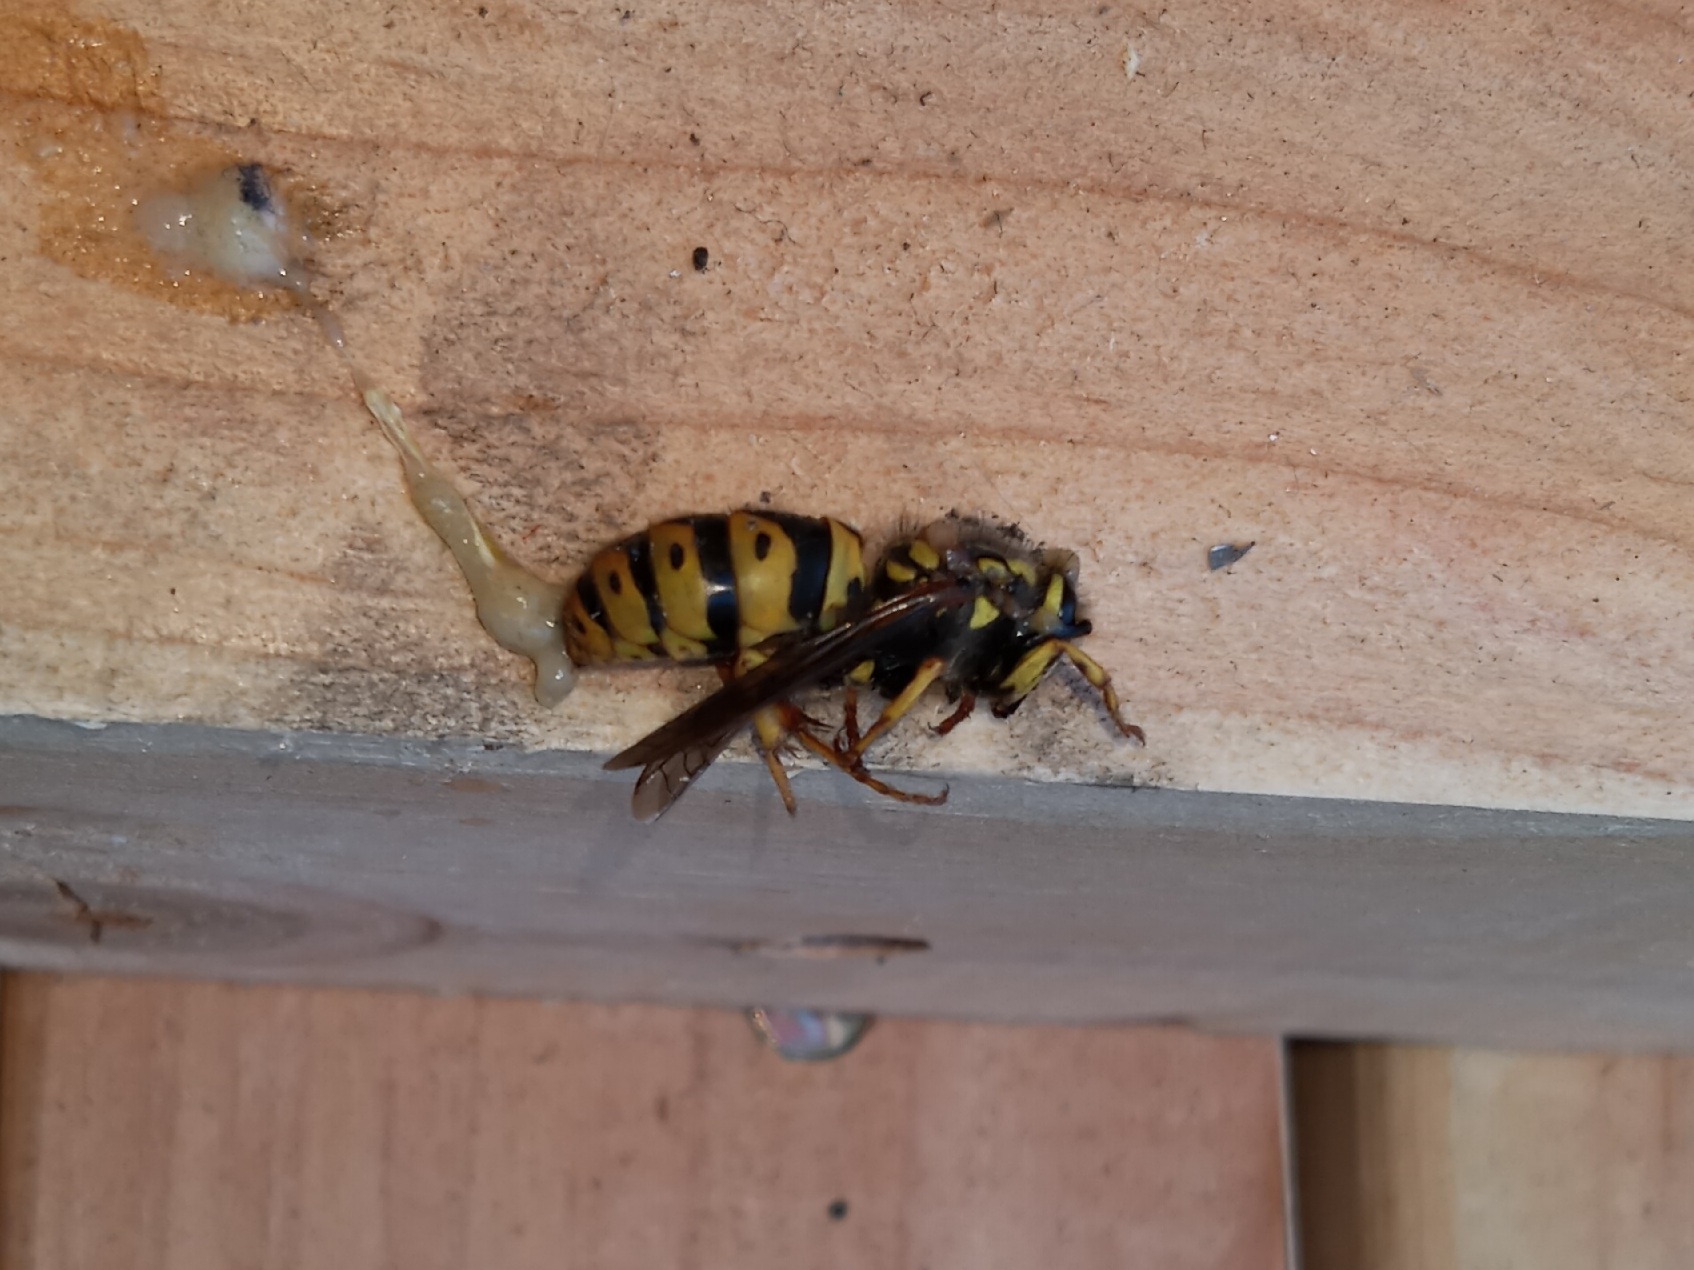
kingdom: Animalia
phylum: Arthropoda
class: Insecta
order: Hymenoptera
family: Vespidae
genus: Vespula
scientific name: Vespula
